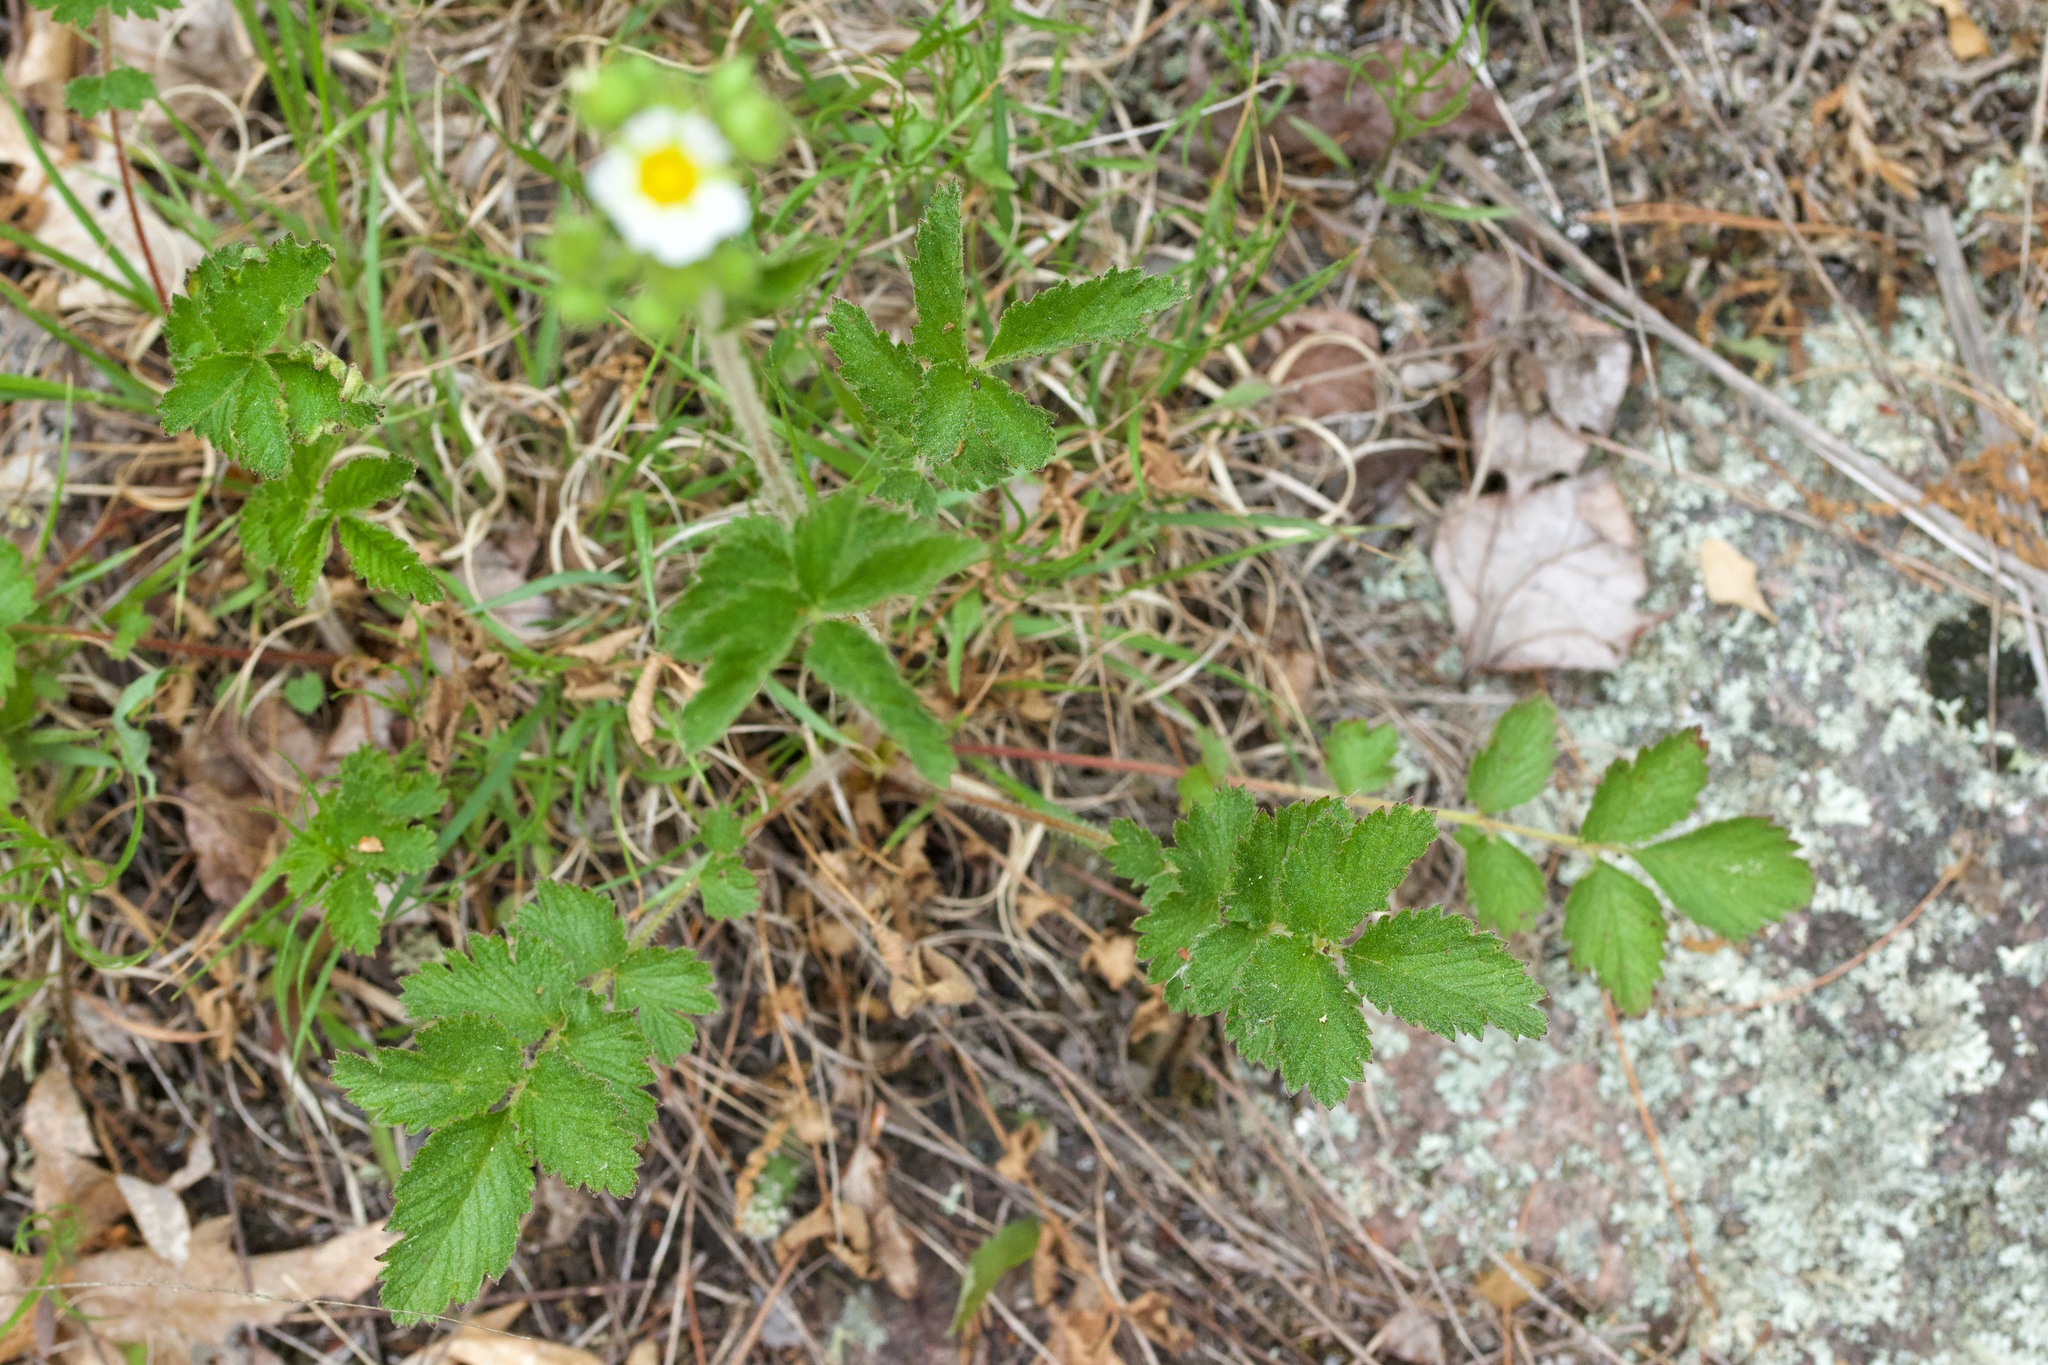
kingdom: Plantae
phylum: Tracheophyta
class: Magnoliopsida
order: Rosales
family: Rosaceae
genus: Drymocallis
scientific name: Drymocallis arguta
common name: Tall cinquefoil
